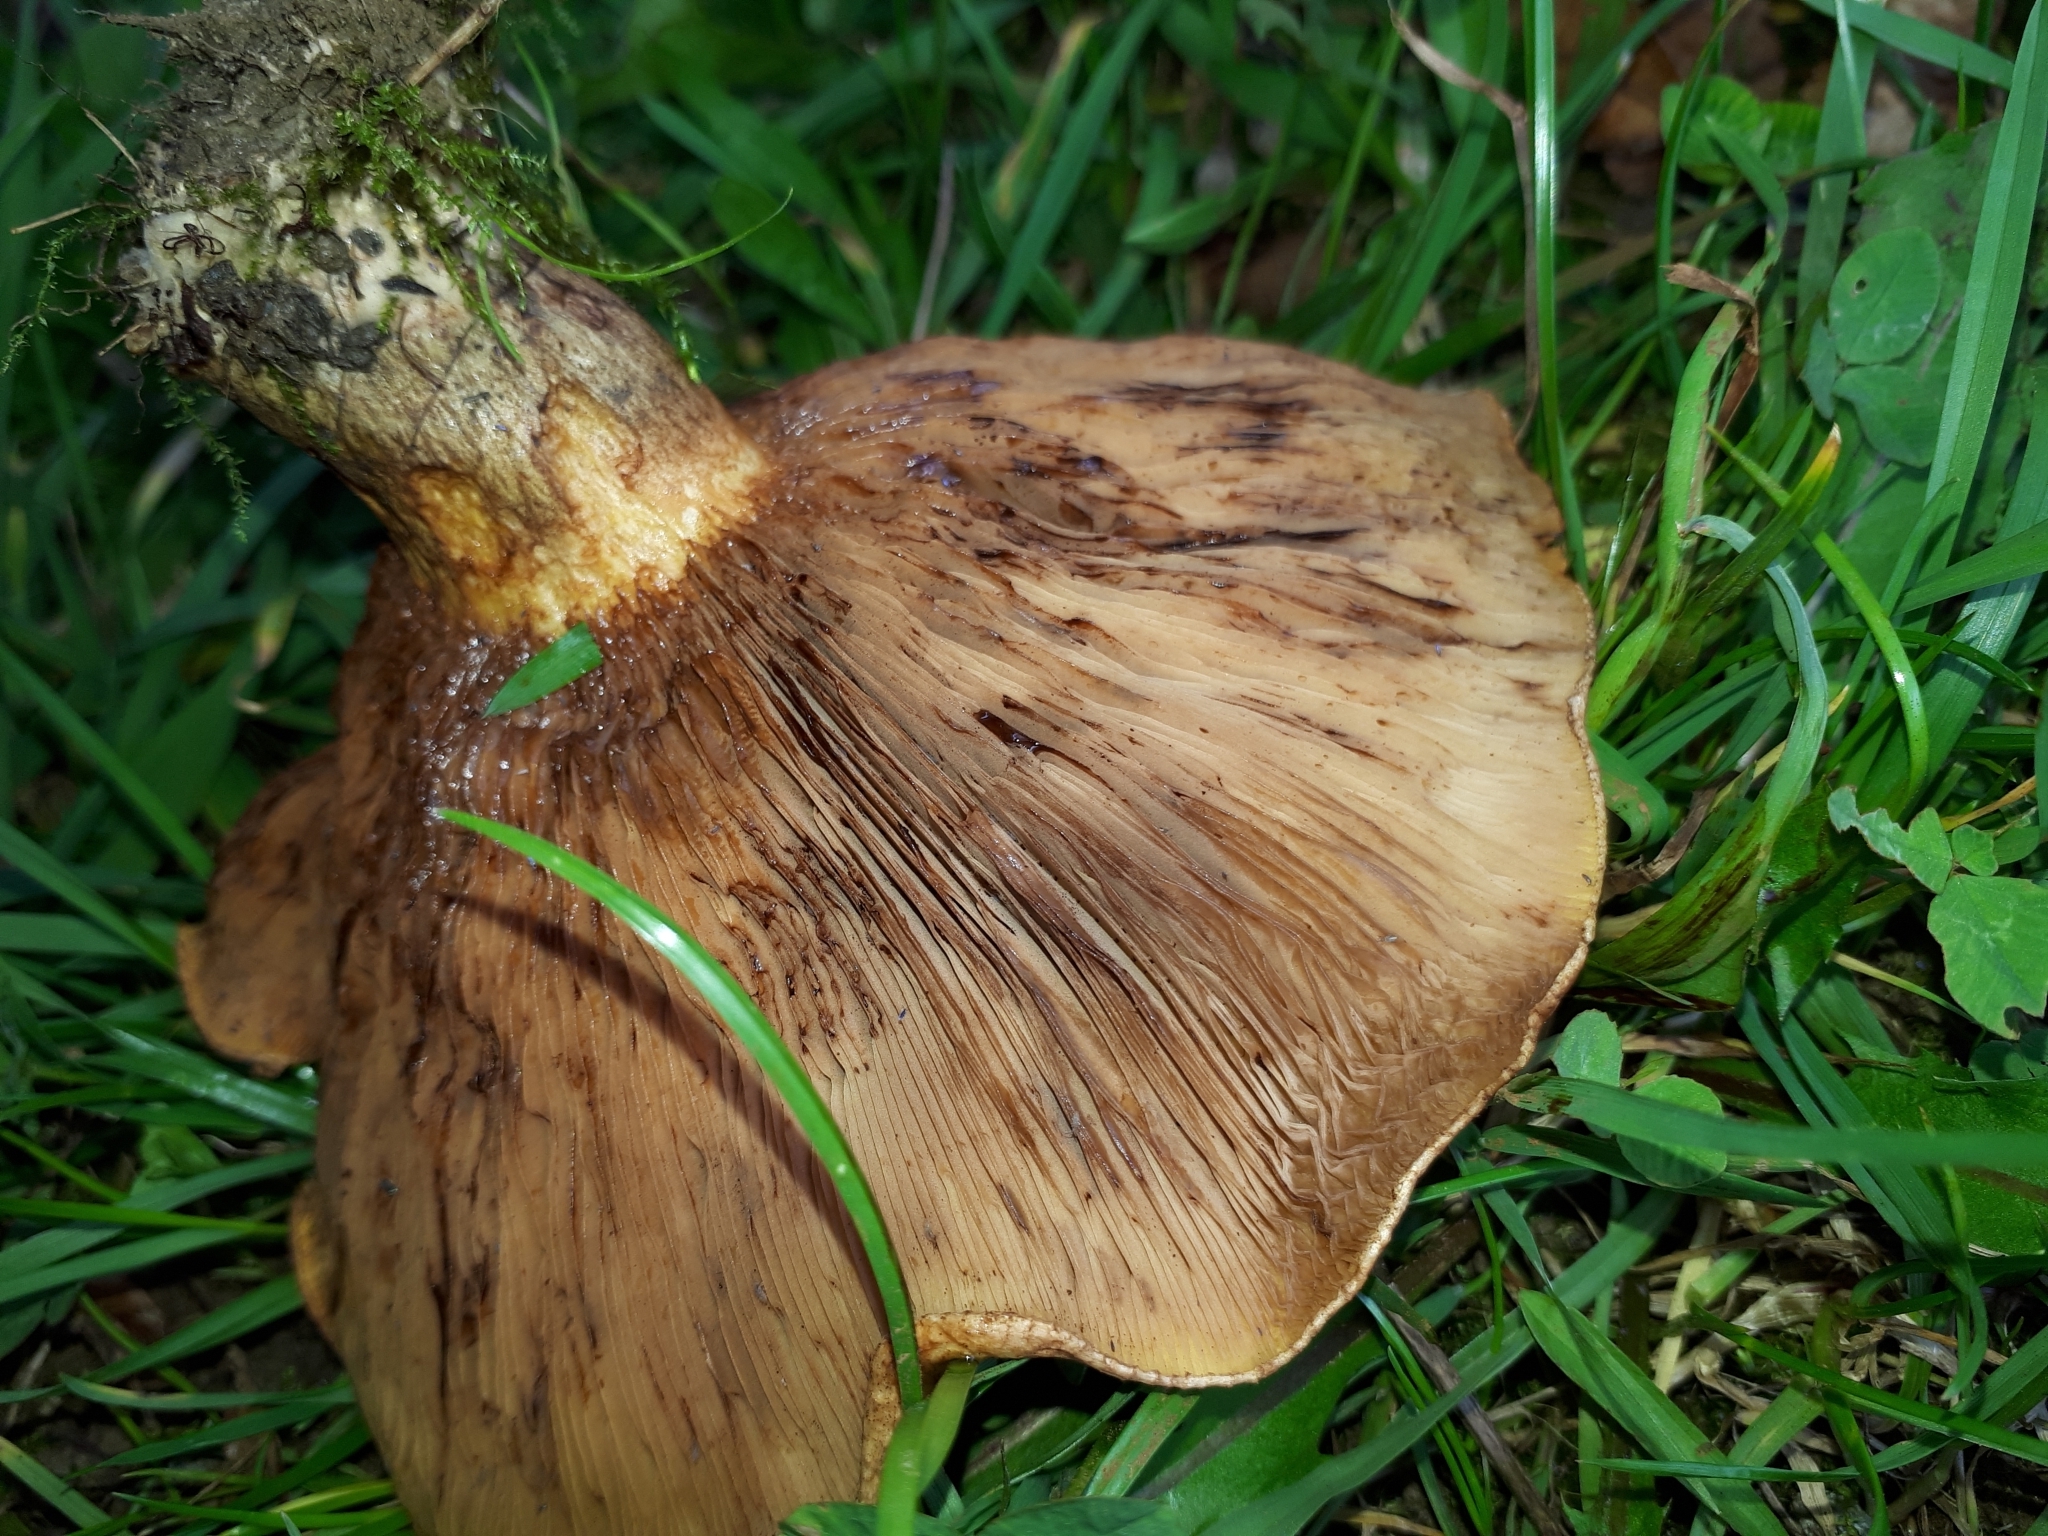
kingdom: Fungi
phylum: Basidiomycota
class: Agaricomycetes
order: Boletales
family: Paxillaceae
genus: Paxillus
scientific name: Paxillus involutus
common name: Brown roll rim
